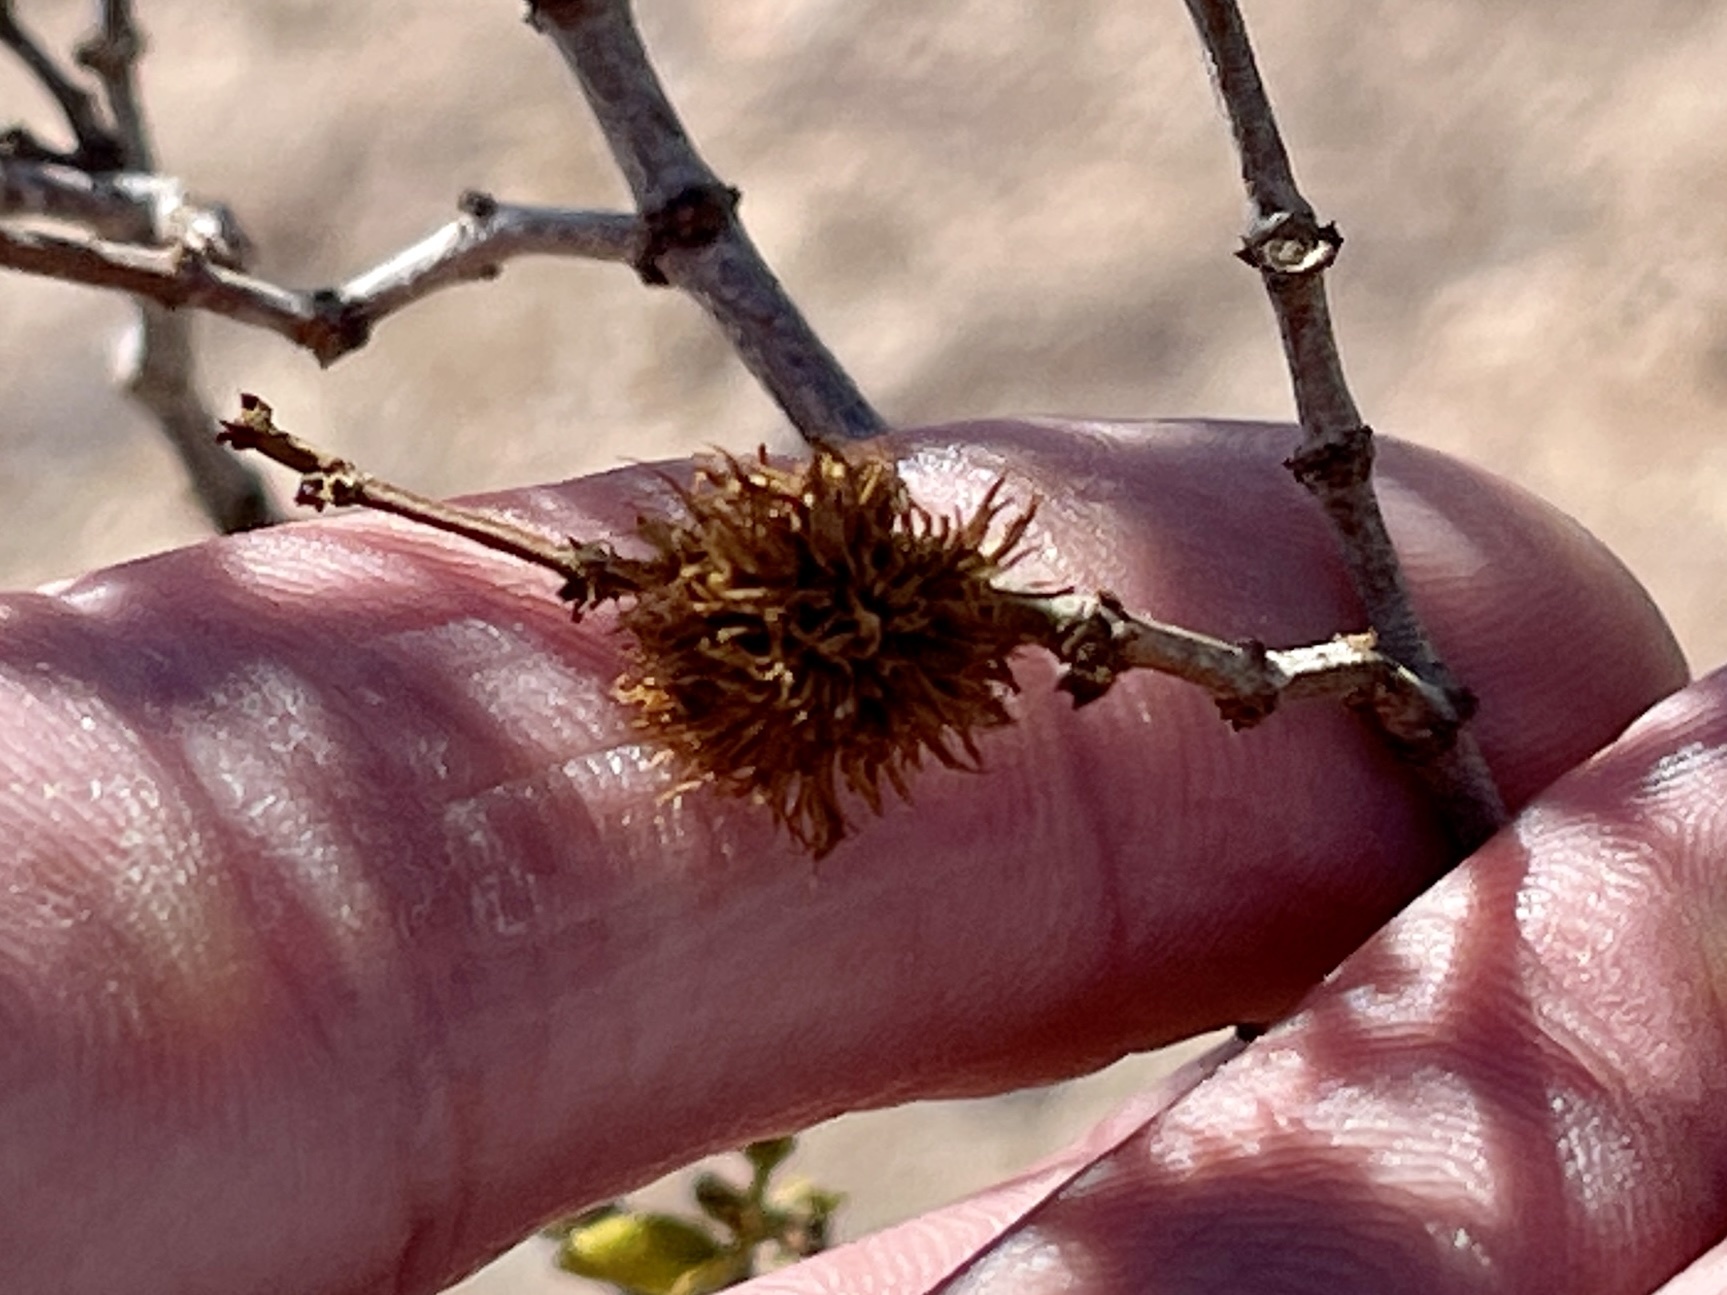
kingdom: Animalia
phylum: Arthropoda
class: Insecta
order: Diptera
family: Cecidomyiidae
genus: Asphondylia
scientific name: Asphondylia auripila
